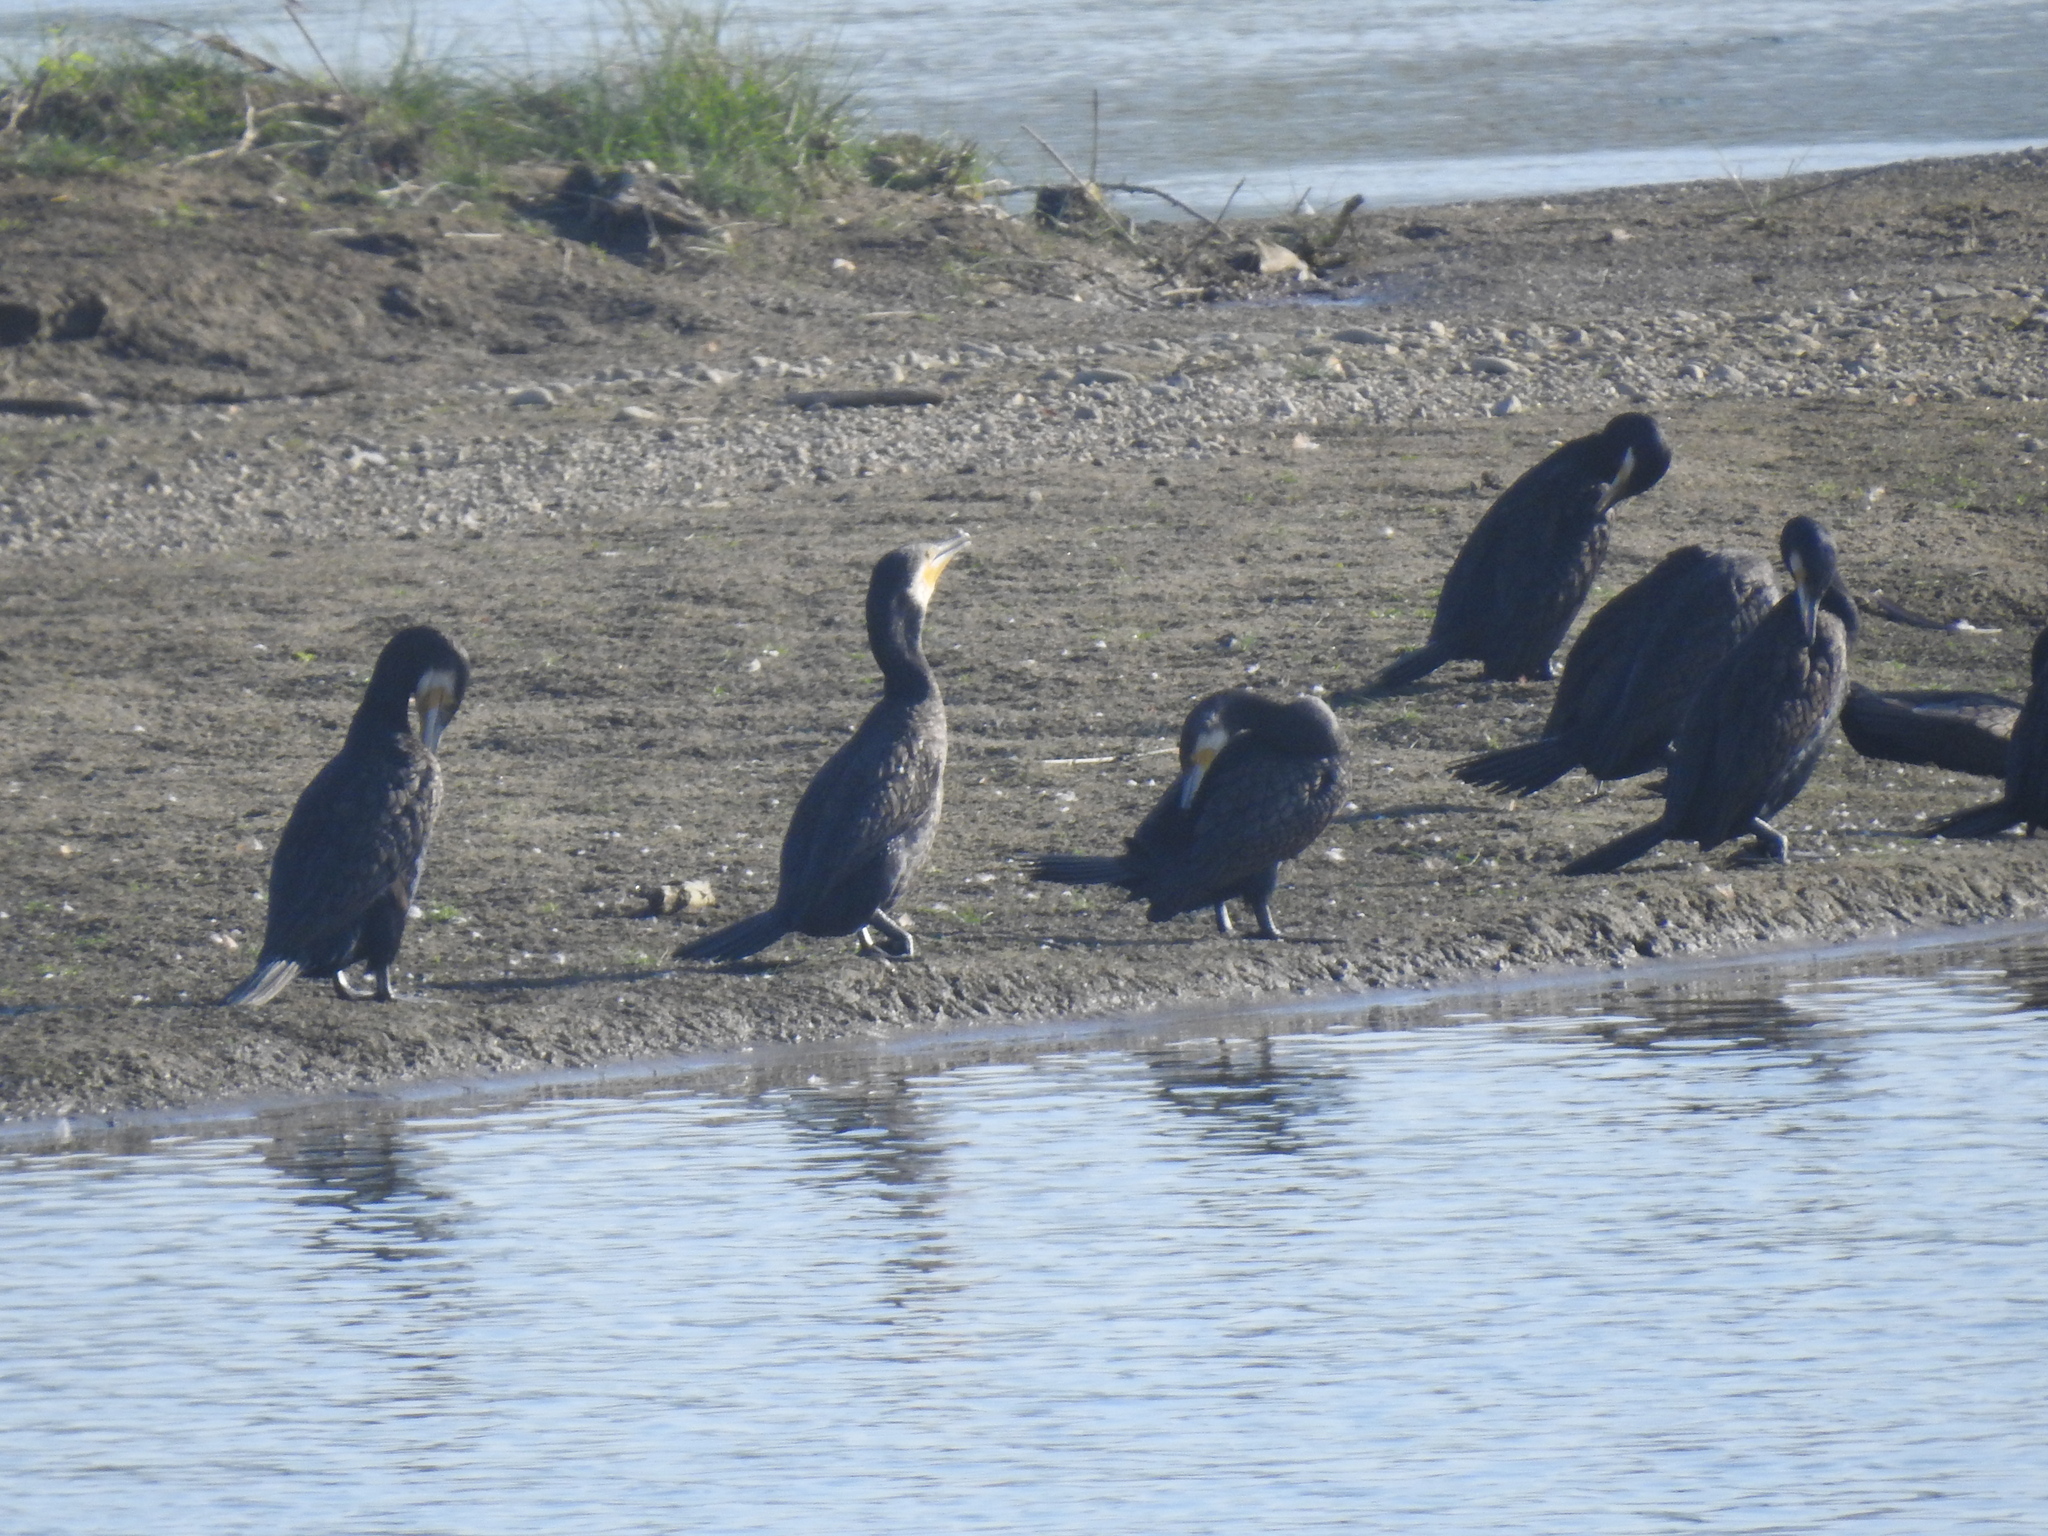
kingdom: Animalia
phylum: Chordata
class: Aves
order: Suliformes
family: Phalacrocoracidae
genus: Phalacrocorax
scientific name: Phalacrocorax carbo
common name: Great cormorant
